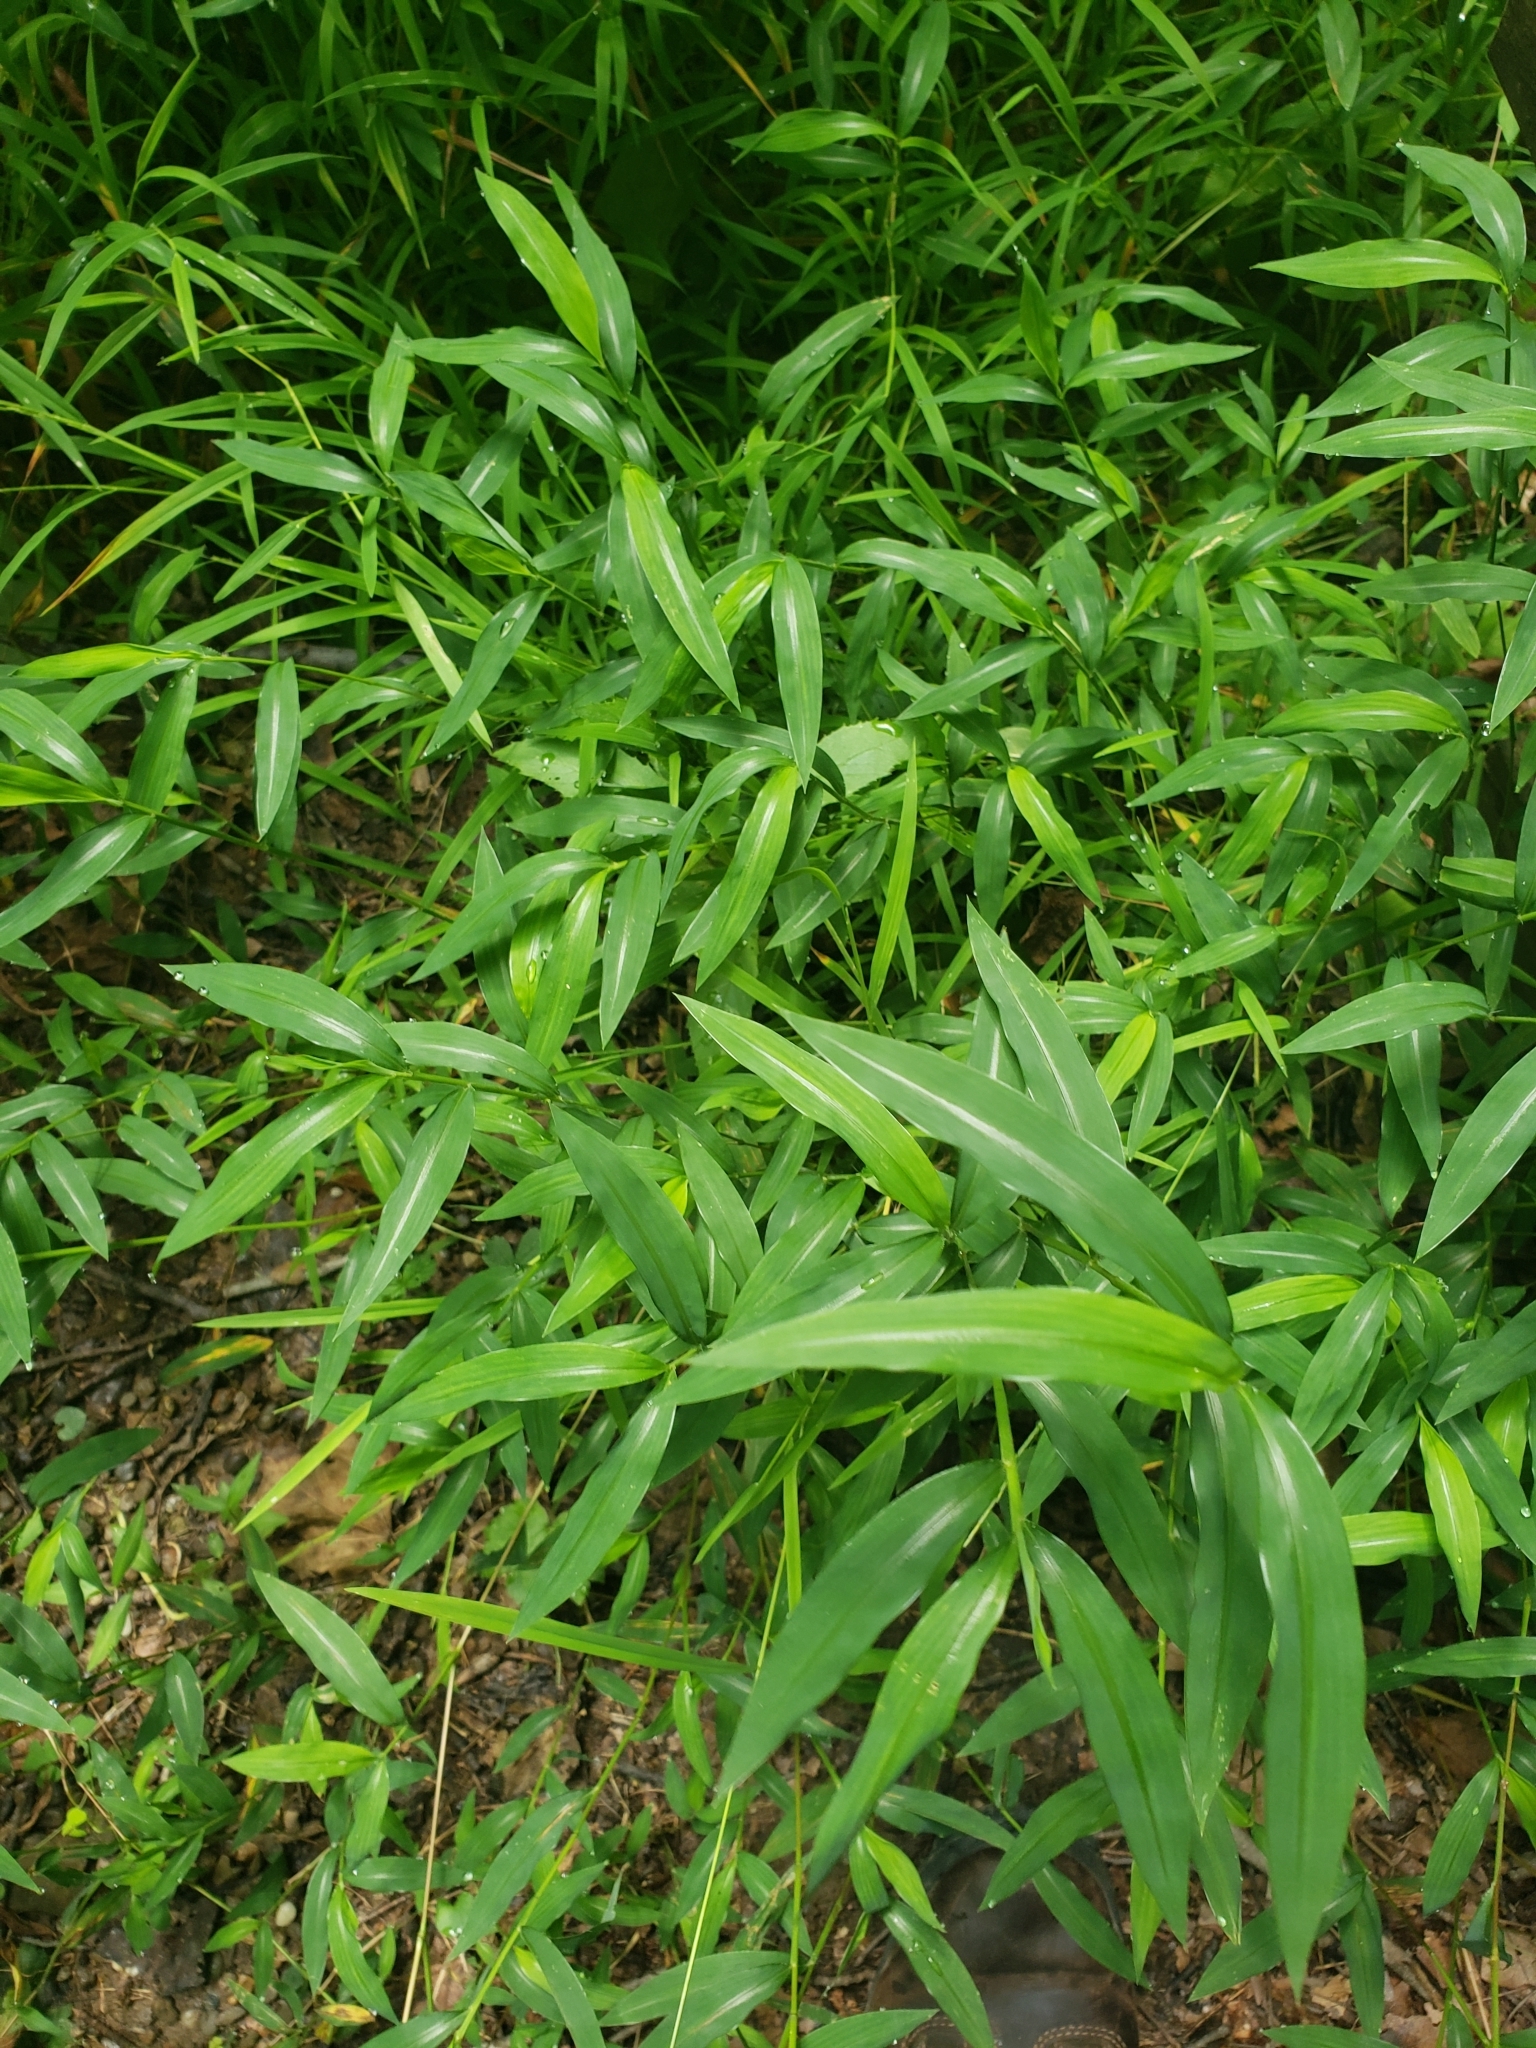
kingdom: Plantae
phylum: Tracheophyta
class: Liliopsida
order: Poales
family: Poaceae
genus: Microstegium
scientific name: Microstegium vimineum
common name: Japanese stiltgrass
